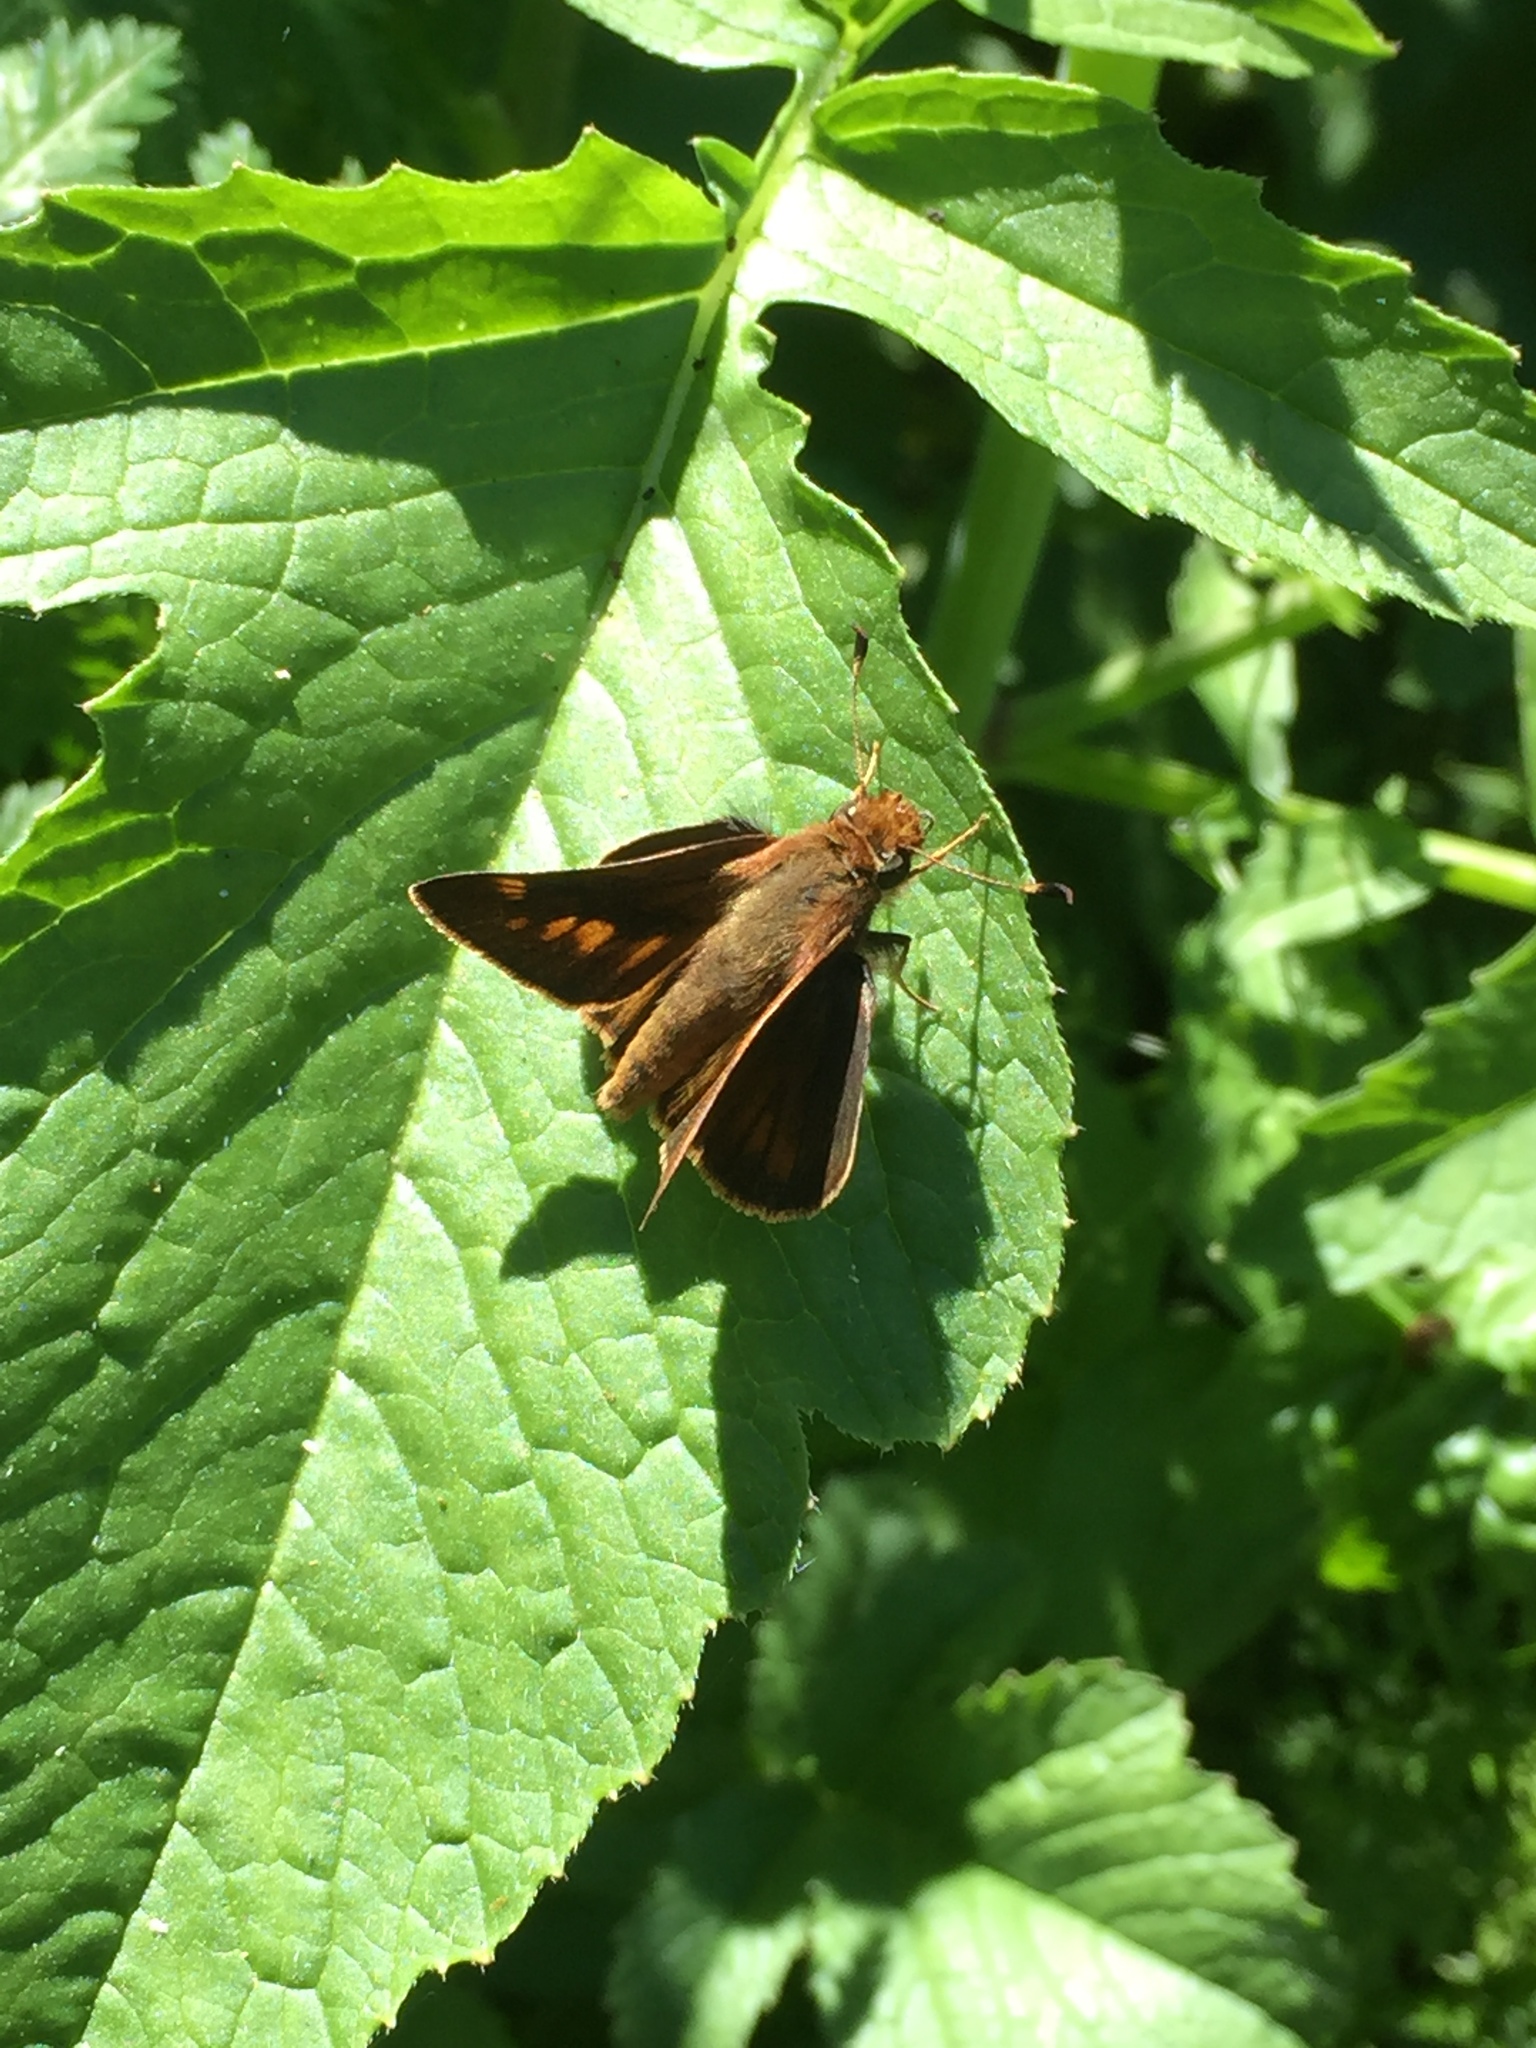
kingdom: Animalia
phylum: Arthropoda
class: Insecta
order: Lepidoptera
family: Hesperiidae
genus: Lon
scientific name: Lon melane
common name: Umber skipper
